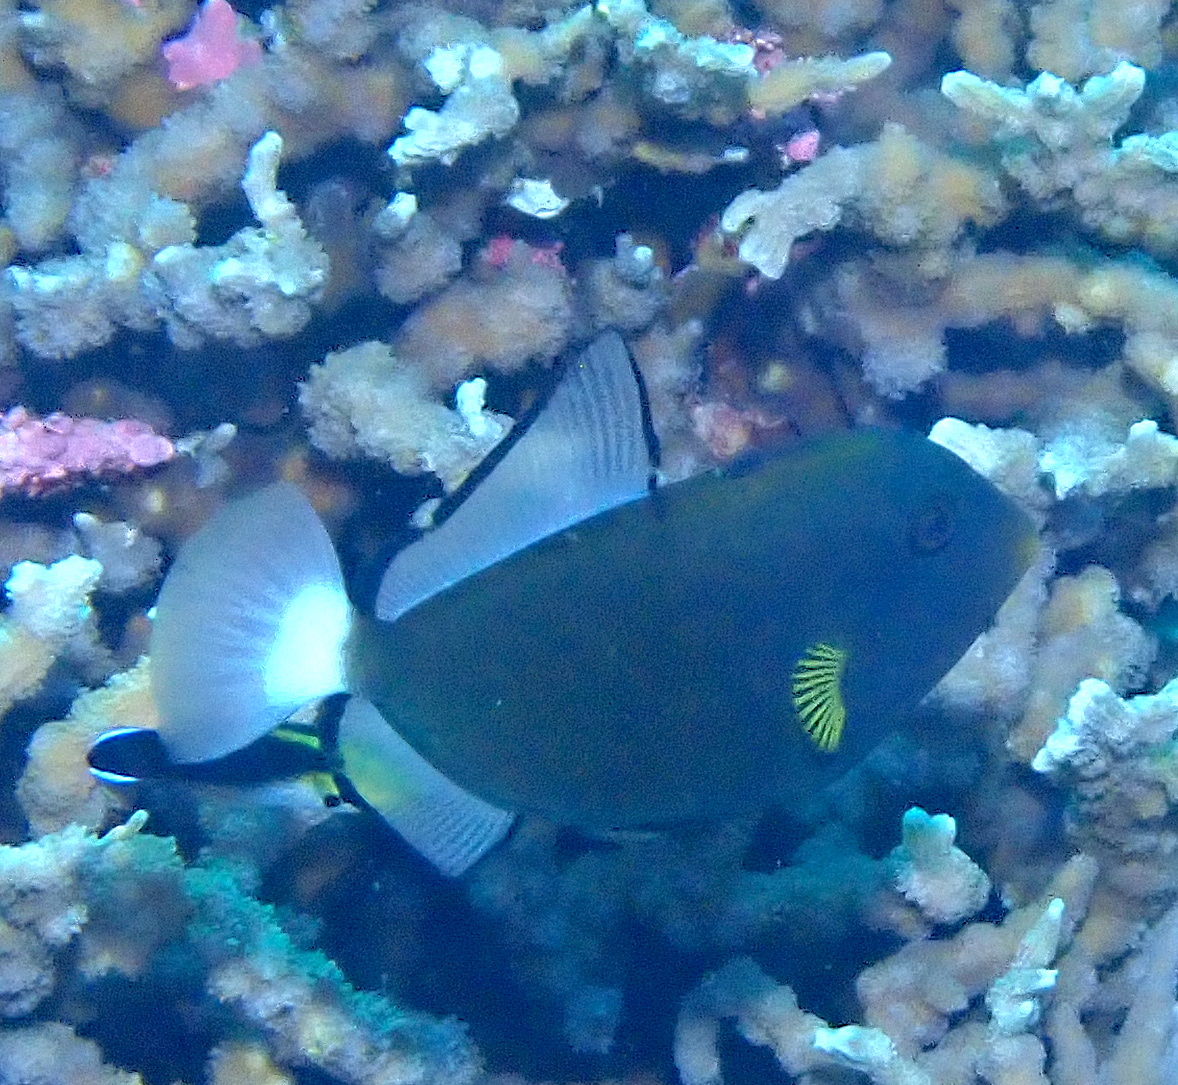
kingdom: Animalia
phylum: Chordata
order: Tetraodontiformes
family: Balistidae
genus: Melichthys
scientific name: Melichthys vidua
